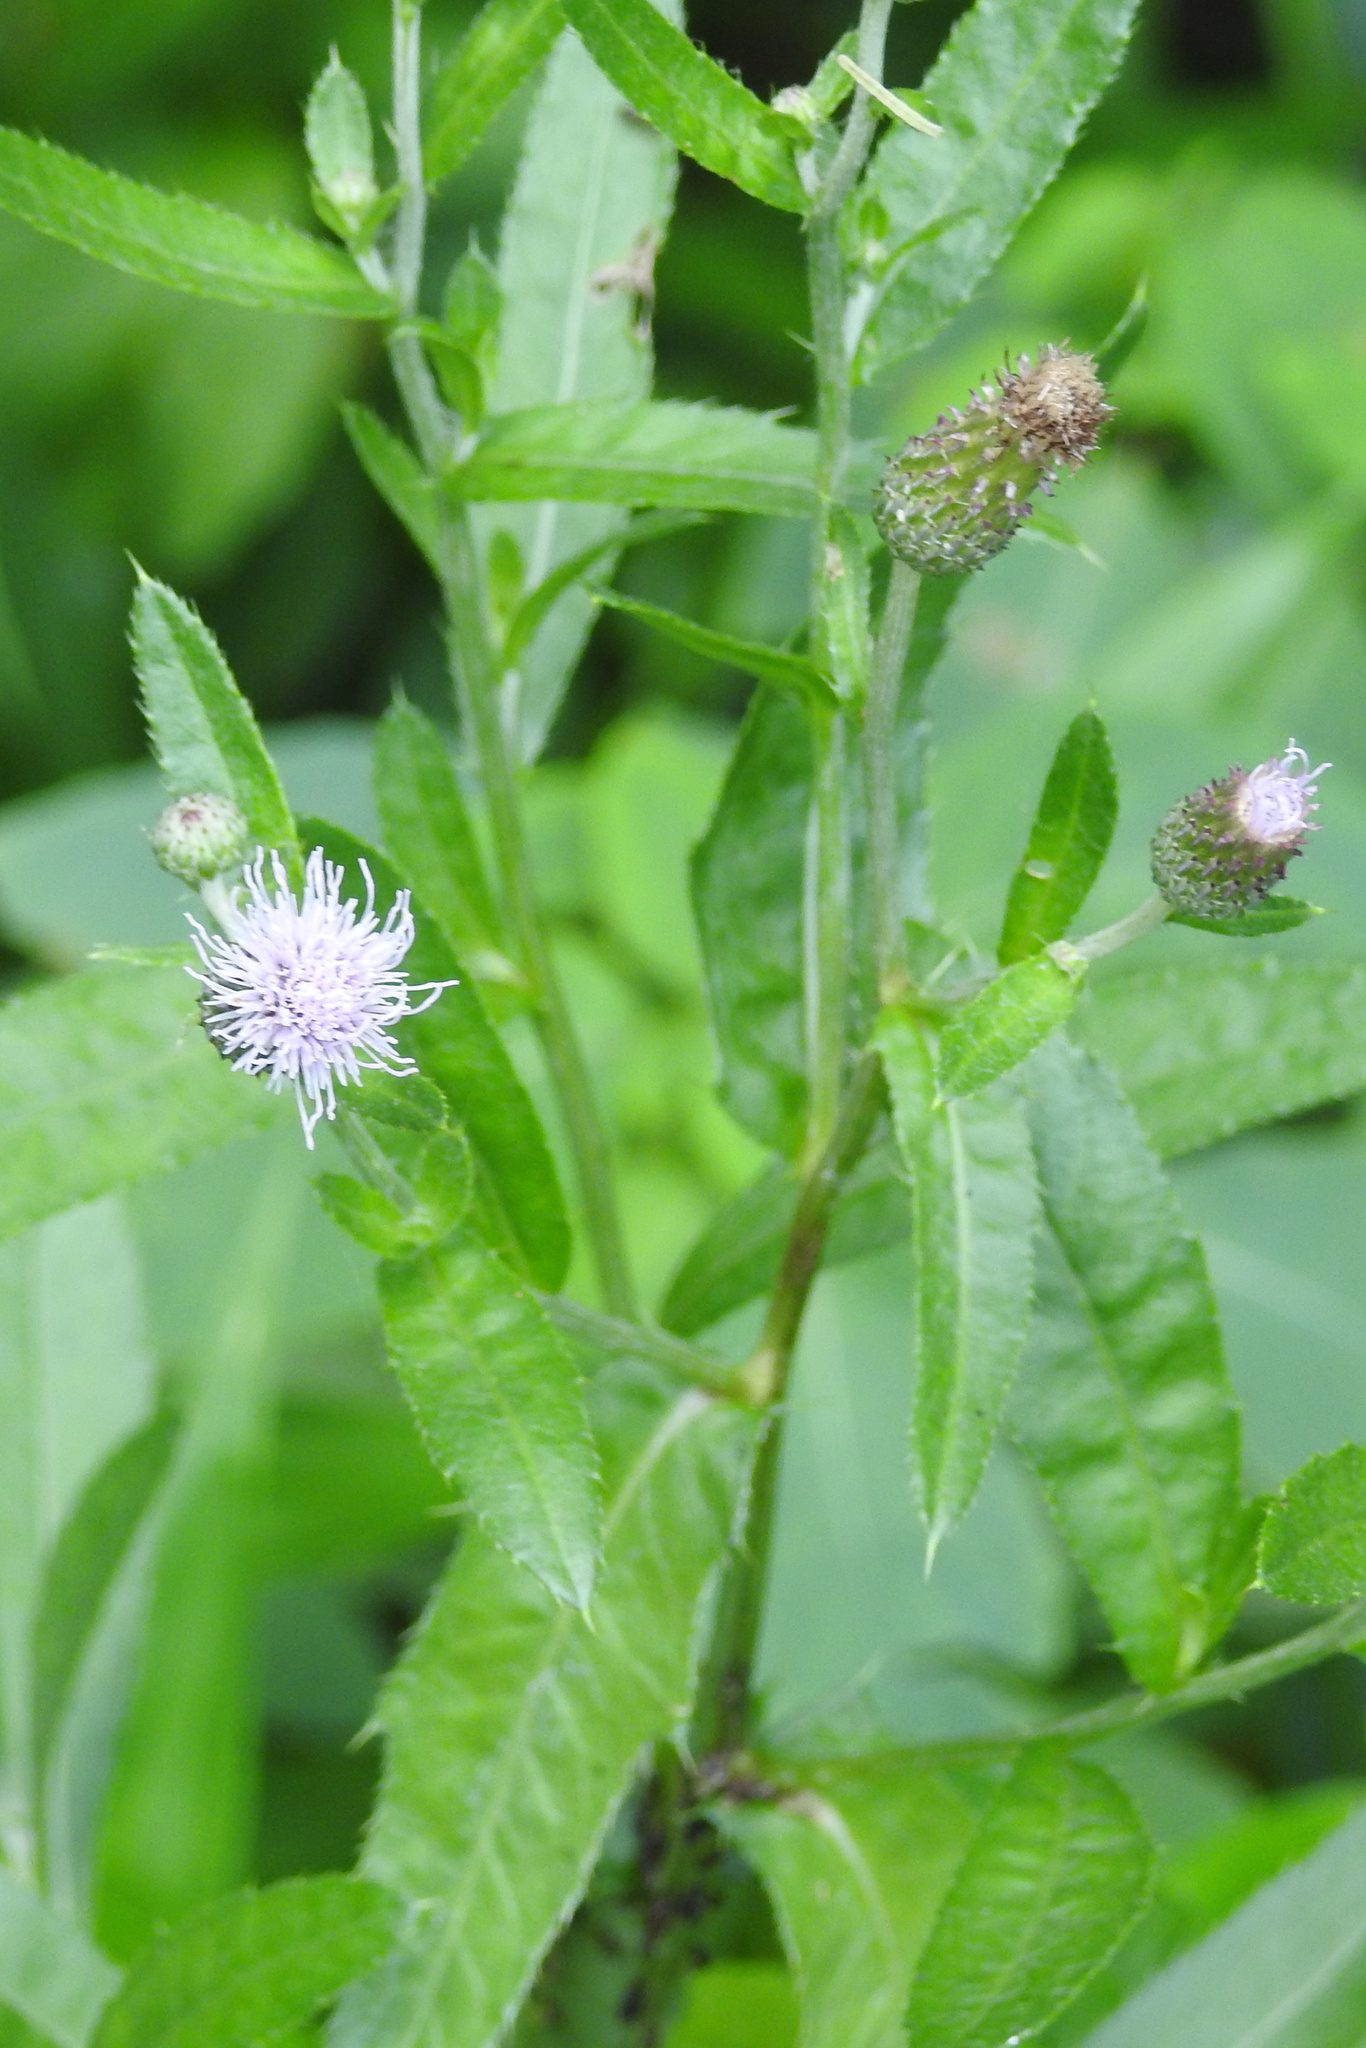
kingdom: Plantae
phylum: Tracheophyta
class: Magnoliopsida
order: Asterales
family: Asteraceae
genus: Cirsium
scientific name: Cirsium arvense
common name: Creeping thistle
